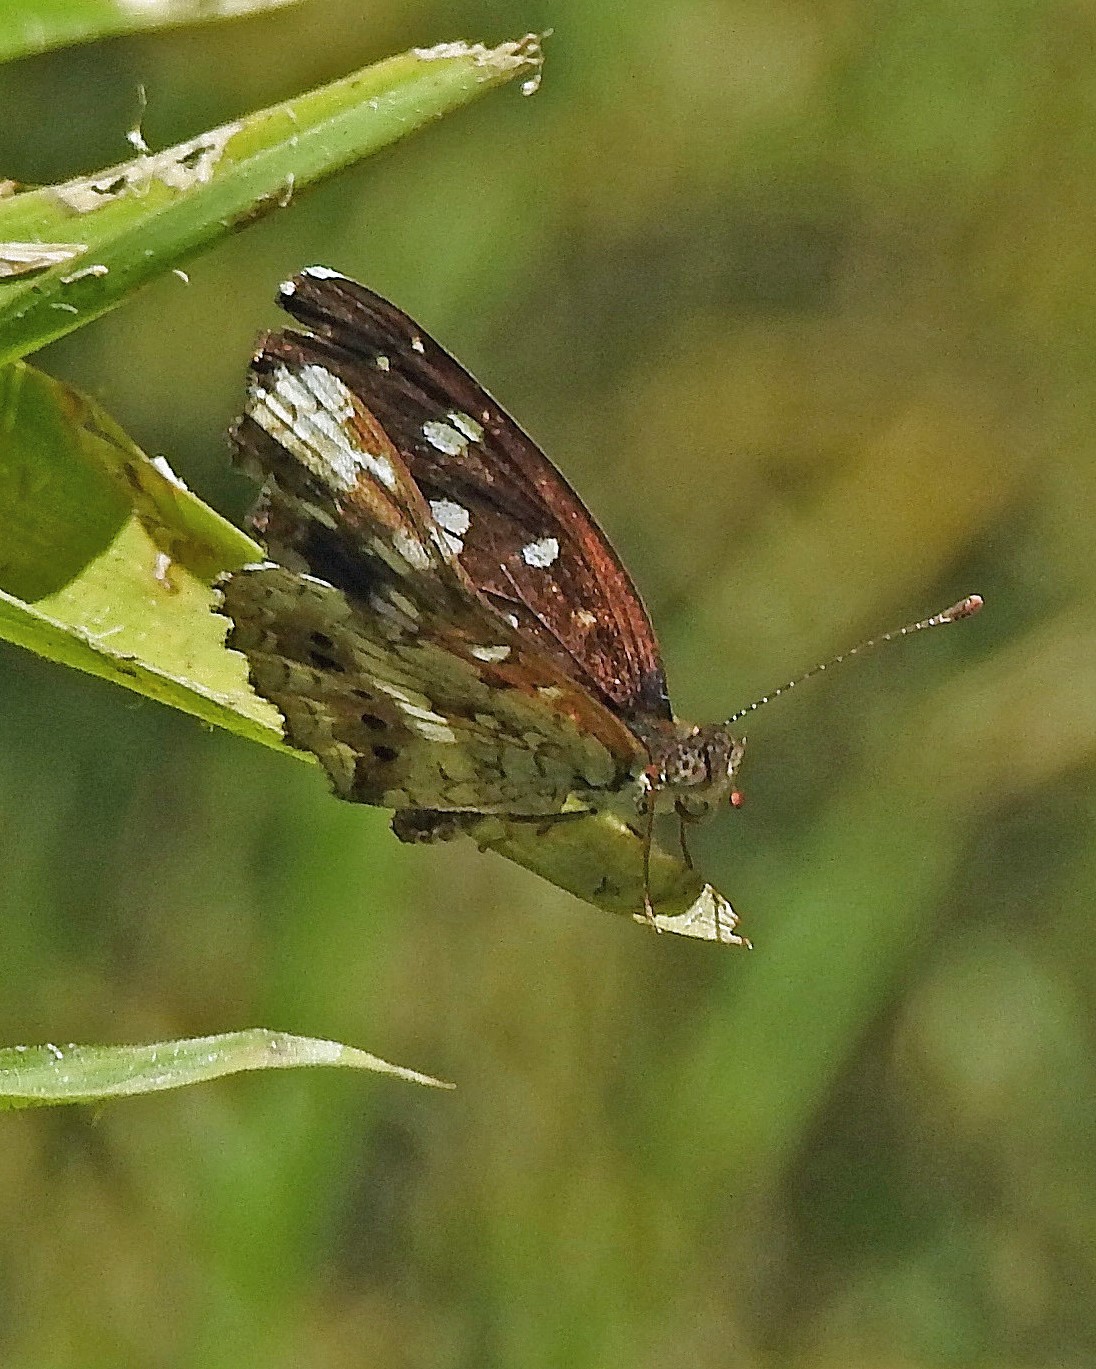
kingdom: Animalia
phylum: Arthropoda
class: Insecta
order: Lepidoptera
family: Nymphalidae
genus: Ortilia
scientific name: Ortilia ithra
